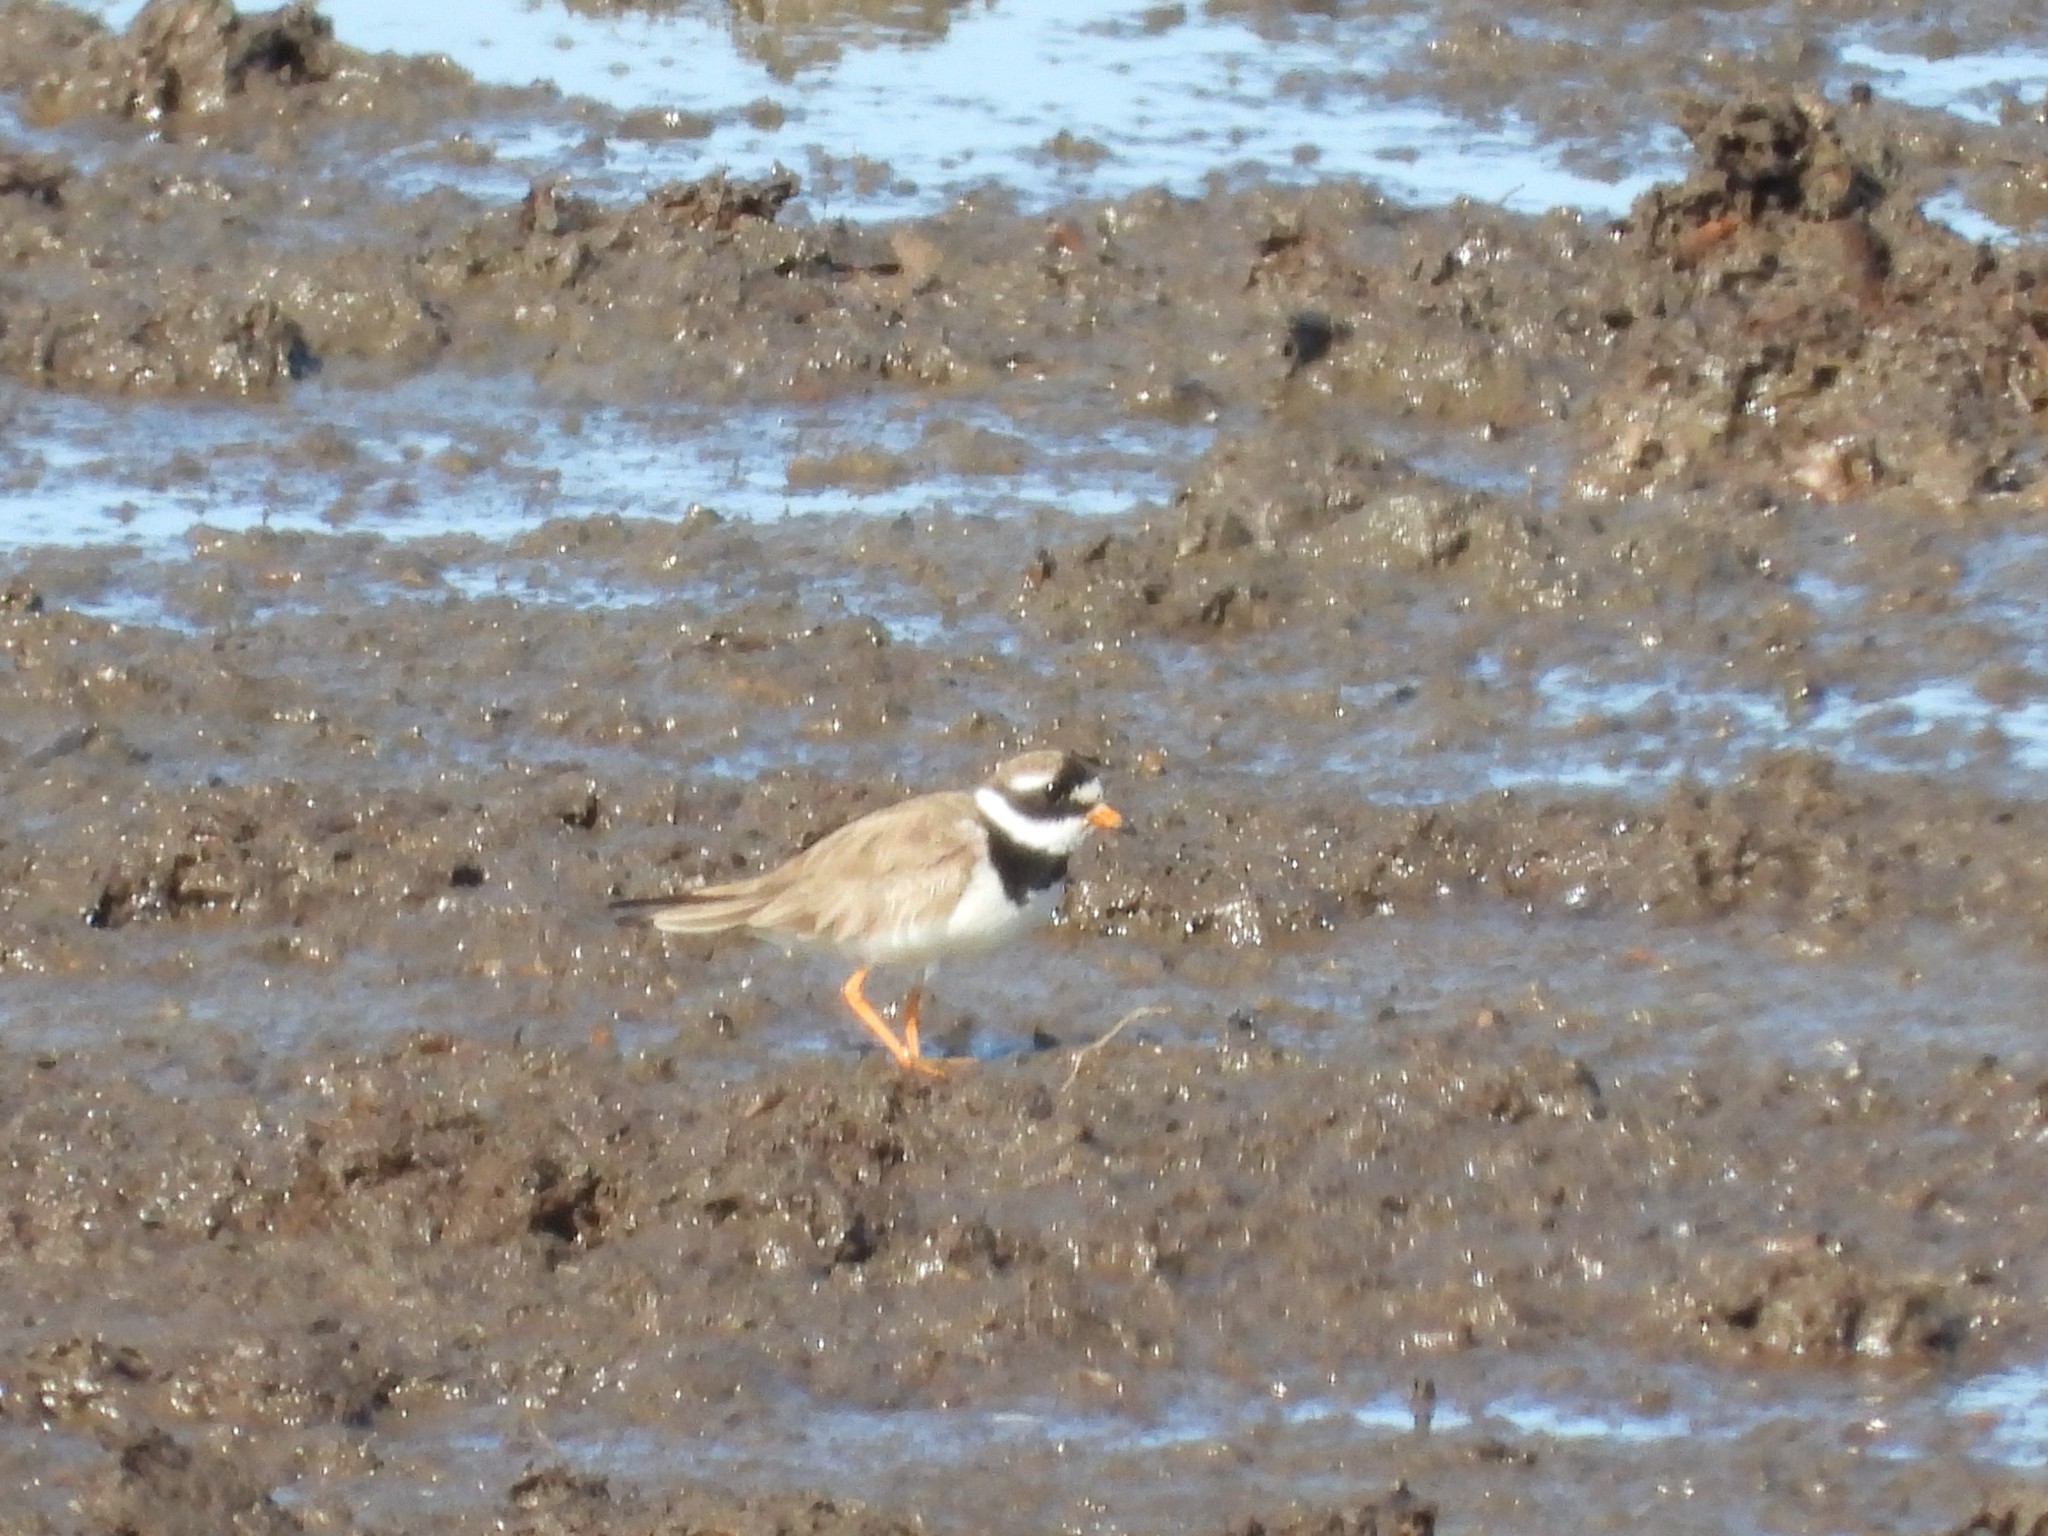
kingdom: Animalia
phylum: Chordata
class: Aves
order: Charadriiformes
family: Charadriidae
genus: Charadrius
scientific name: Charadrius hiaticula
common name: Common ringed plover
